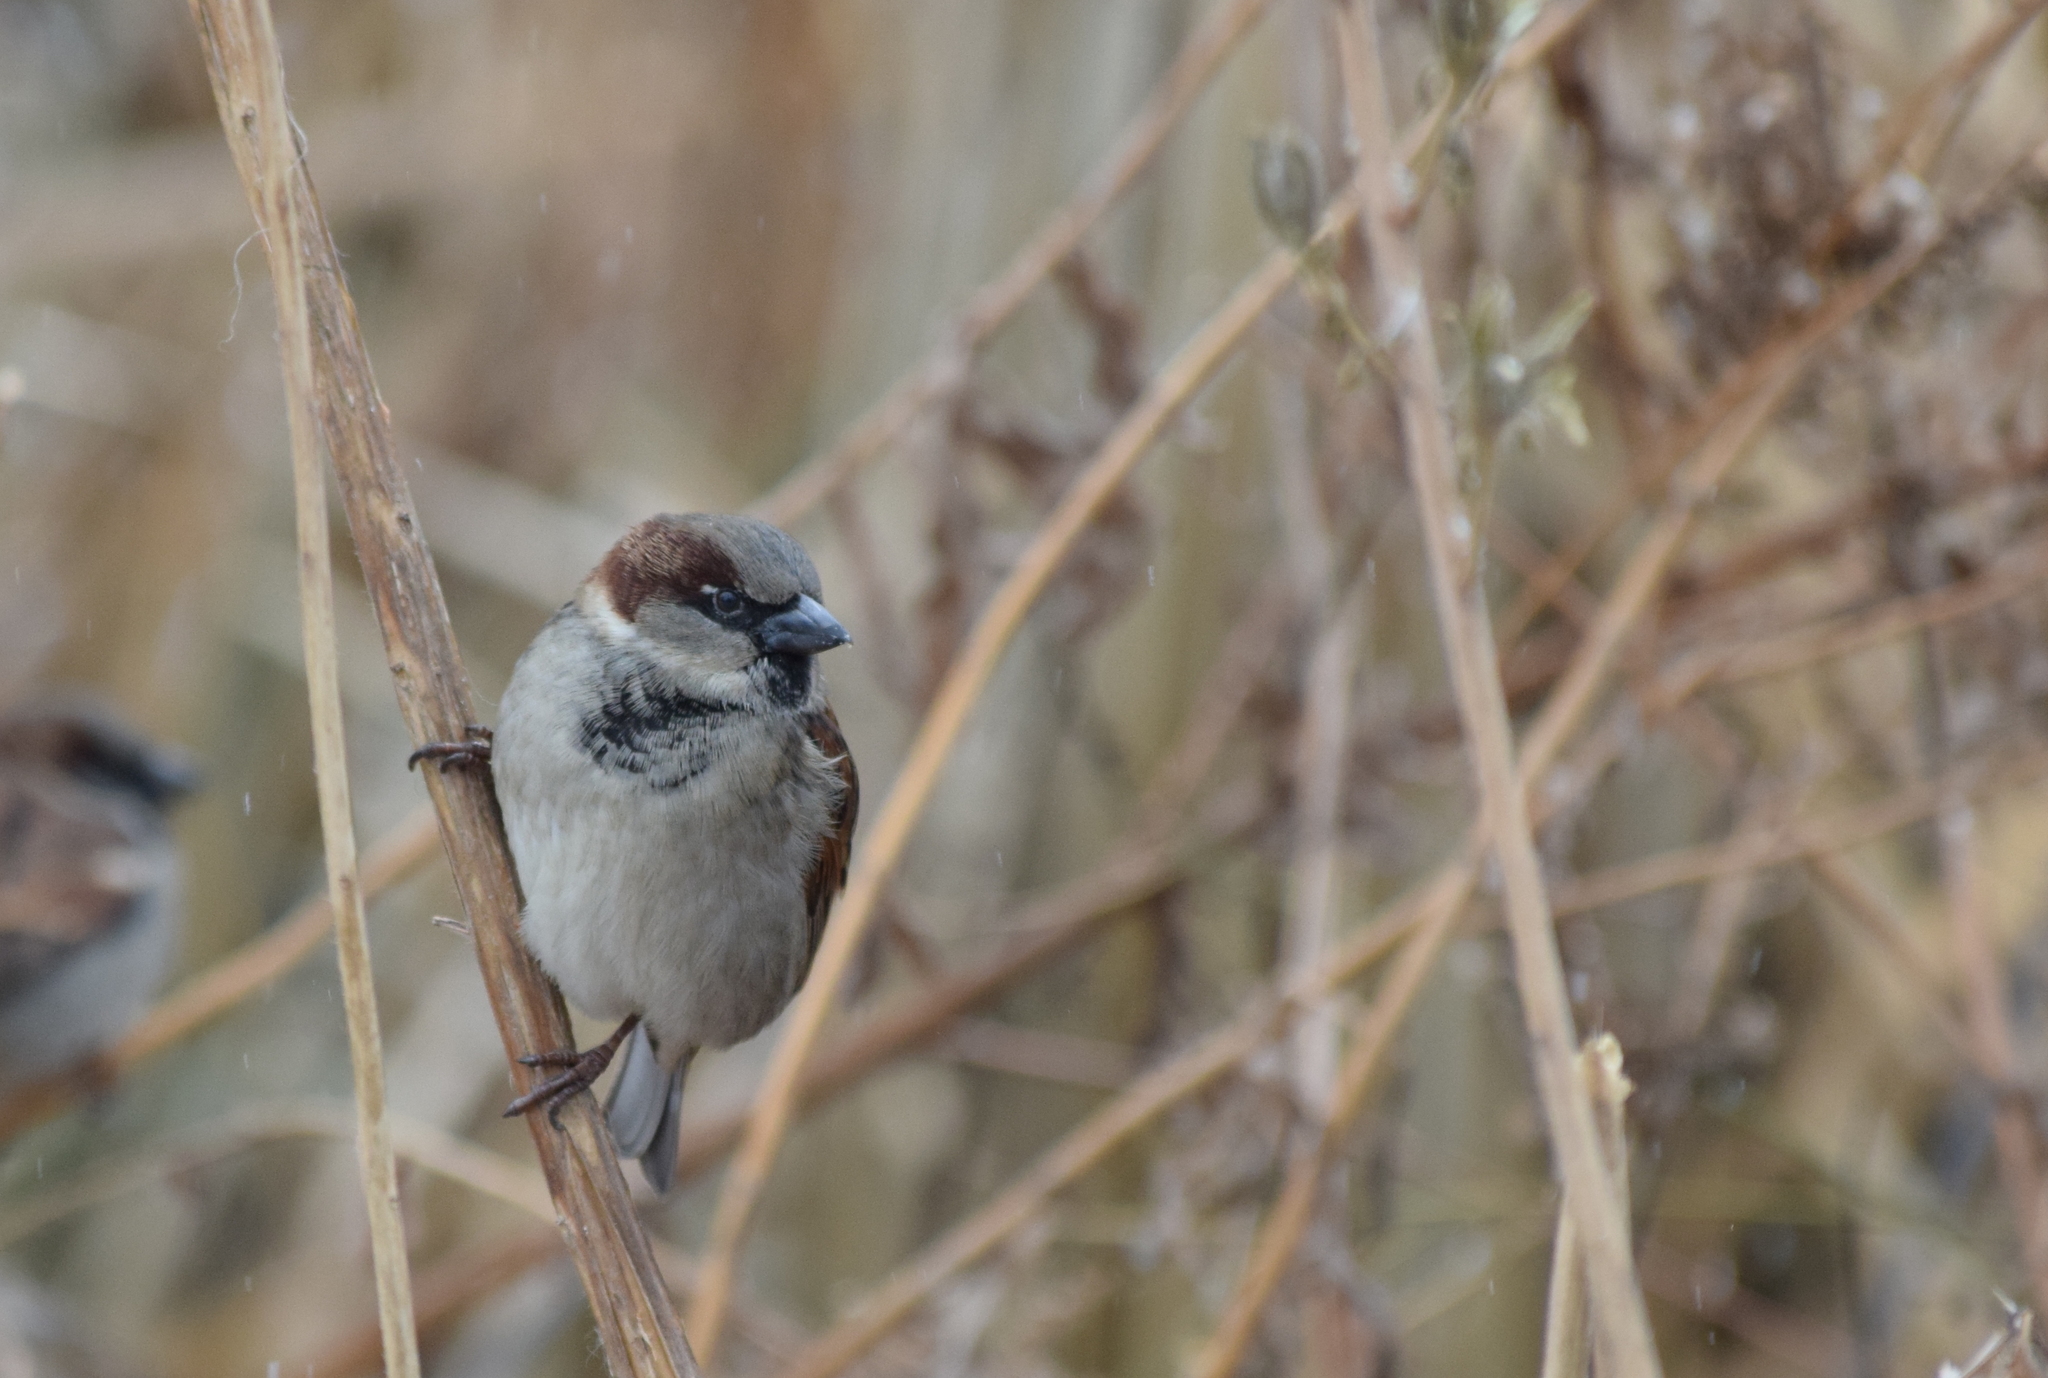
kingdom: Animalia
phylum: Chordata
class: Aves
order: Passeriformes
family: Passeridae
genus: Passer
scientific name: Passer domesticus
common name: House sparrow
